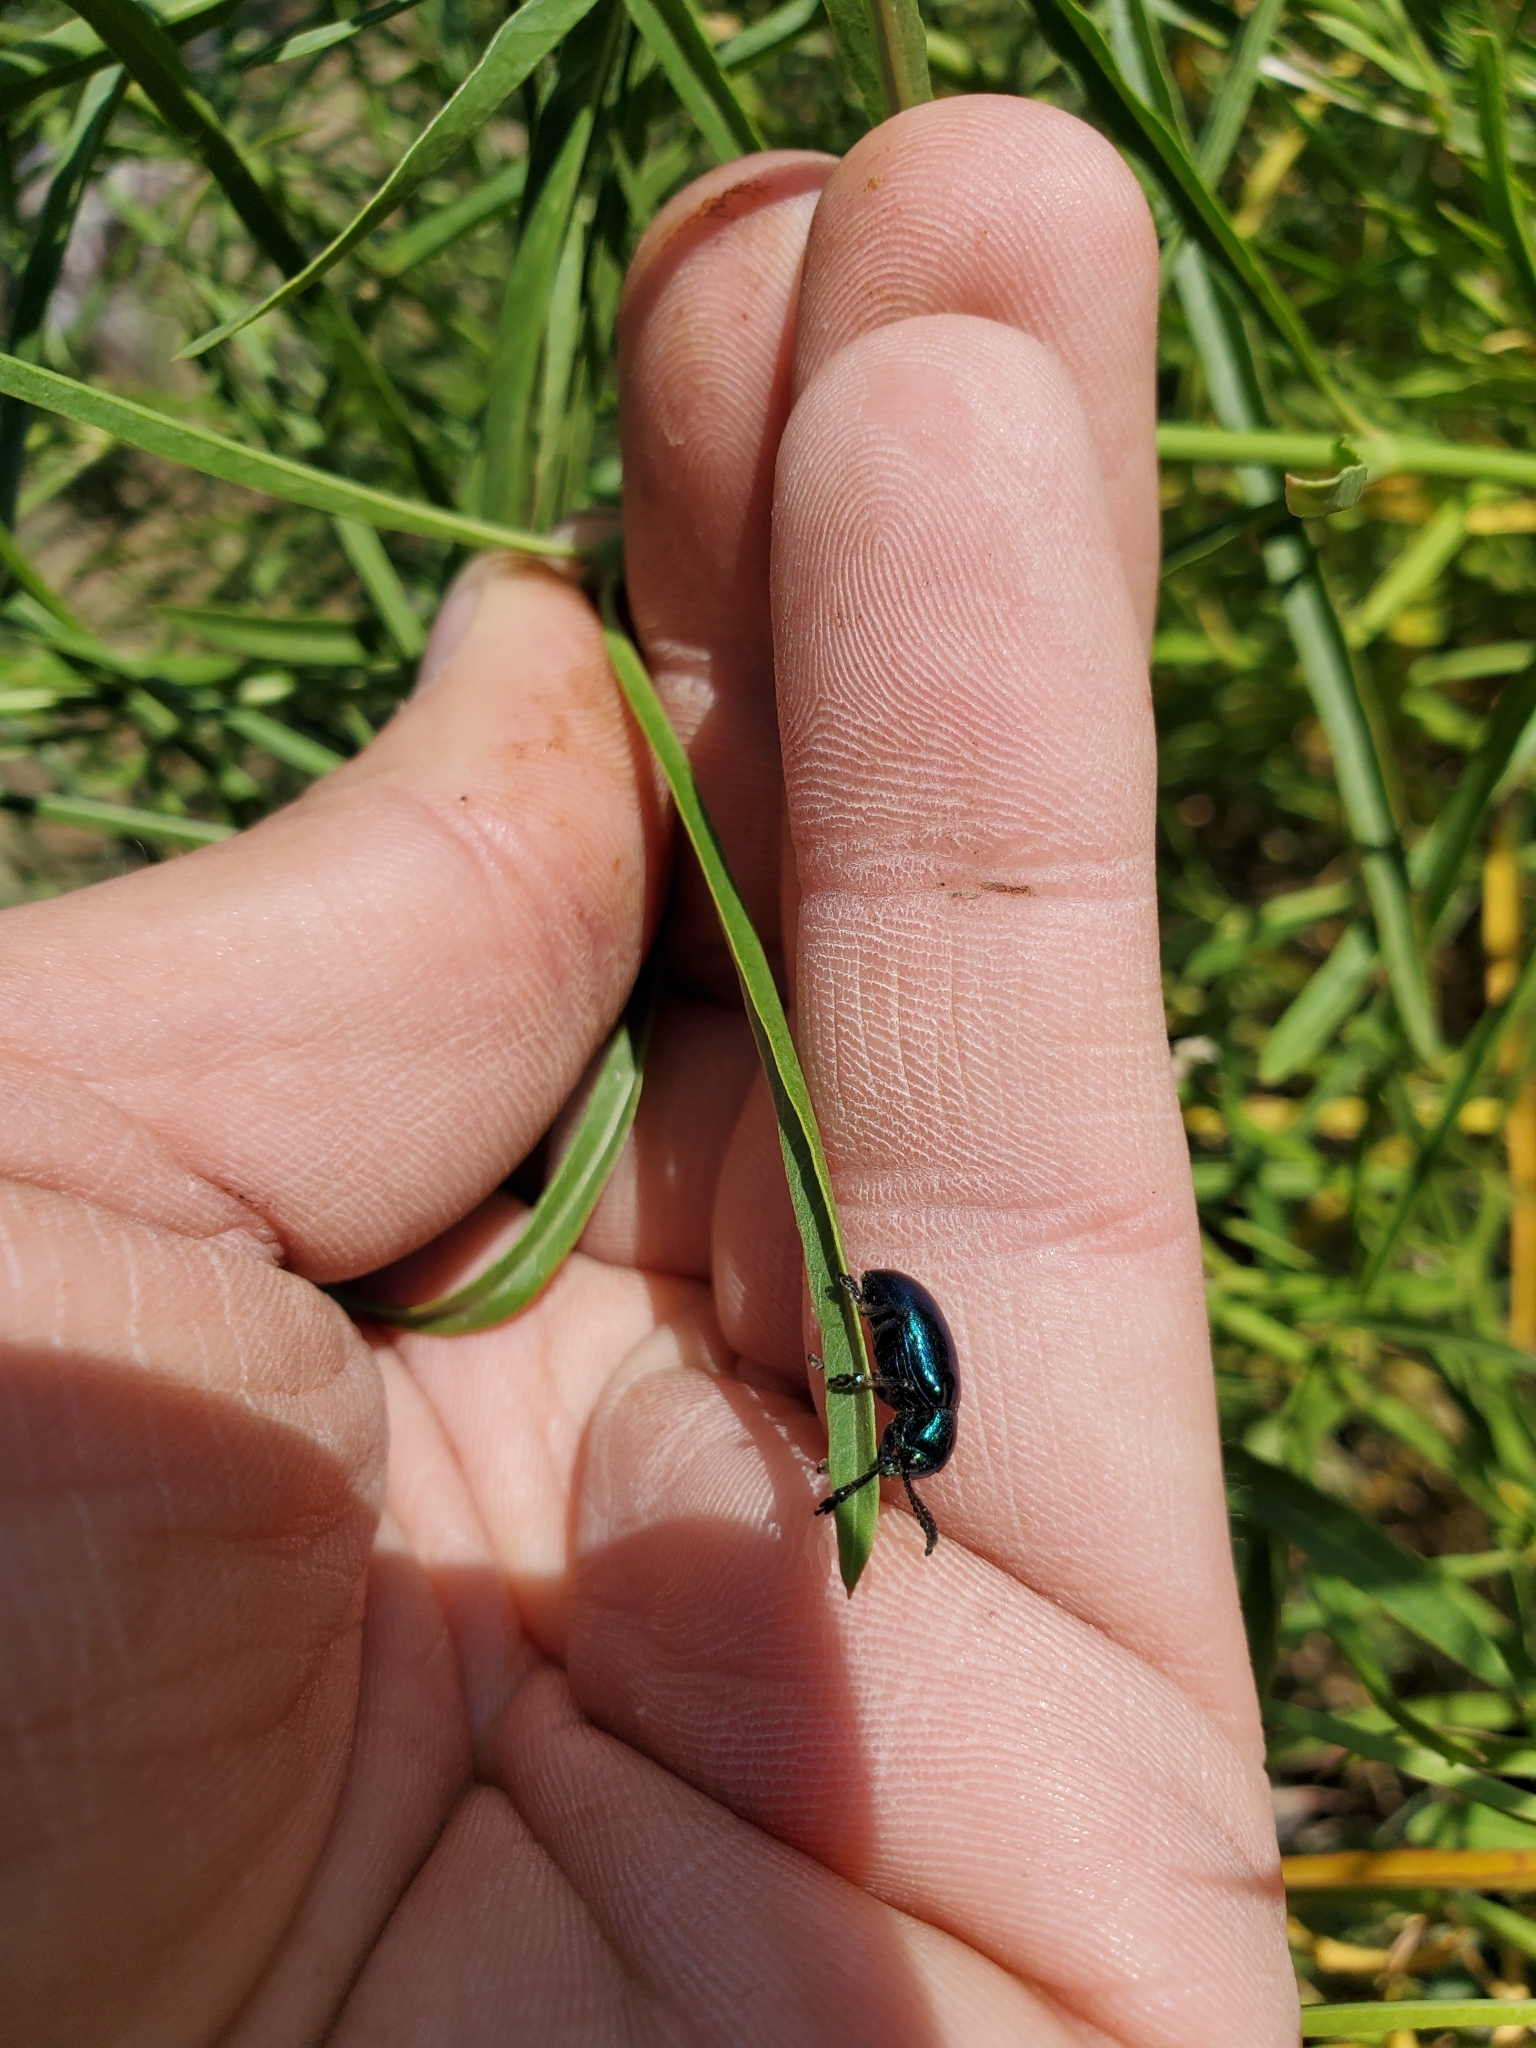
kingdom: Animalia
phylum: Arthropoda
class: Insecta
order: Coleoptera
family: Chrysomelidae
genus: Chrysochus
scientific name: Chrysochus cobaltinus
